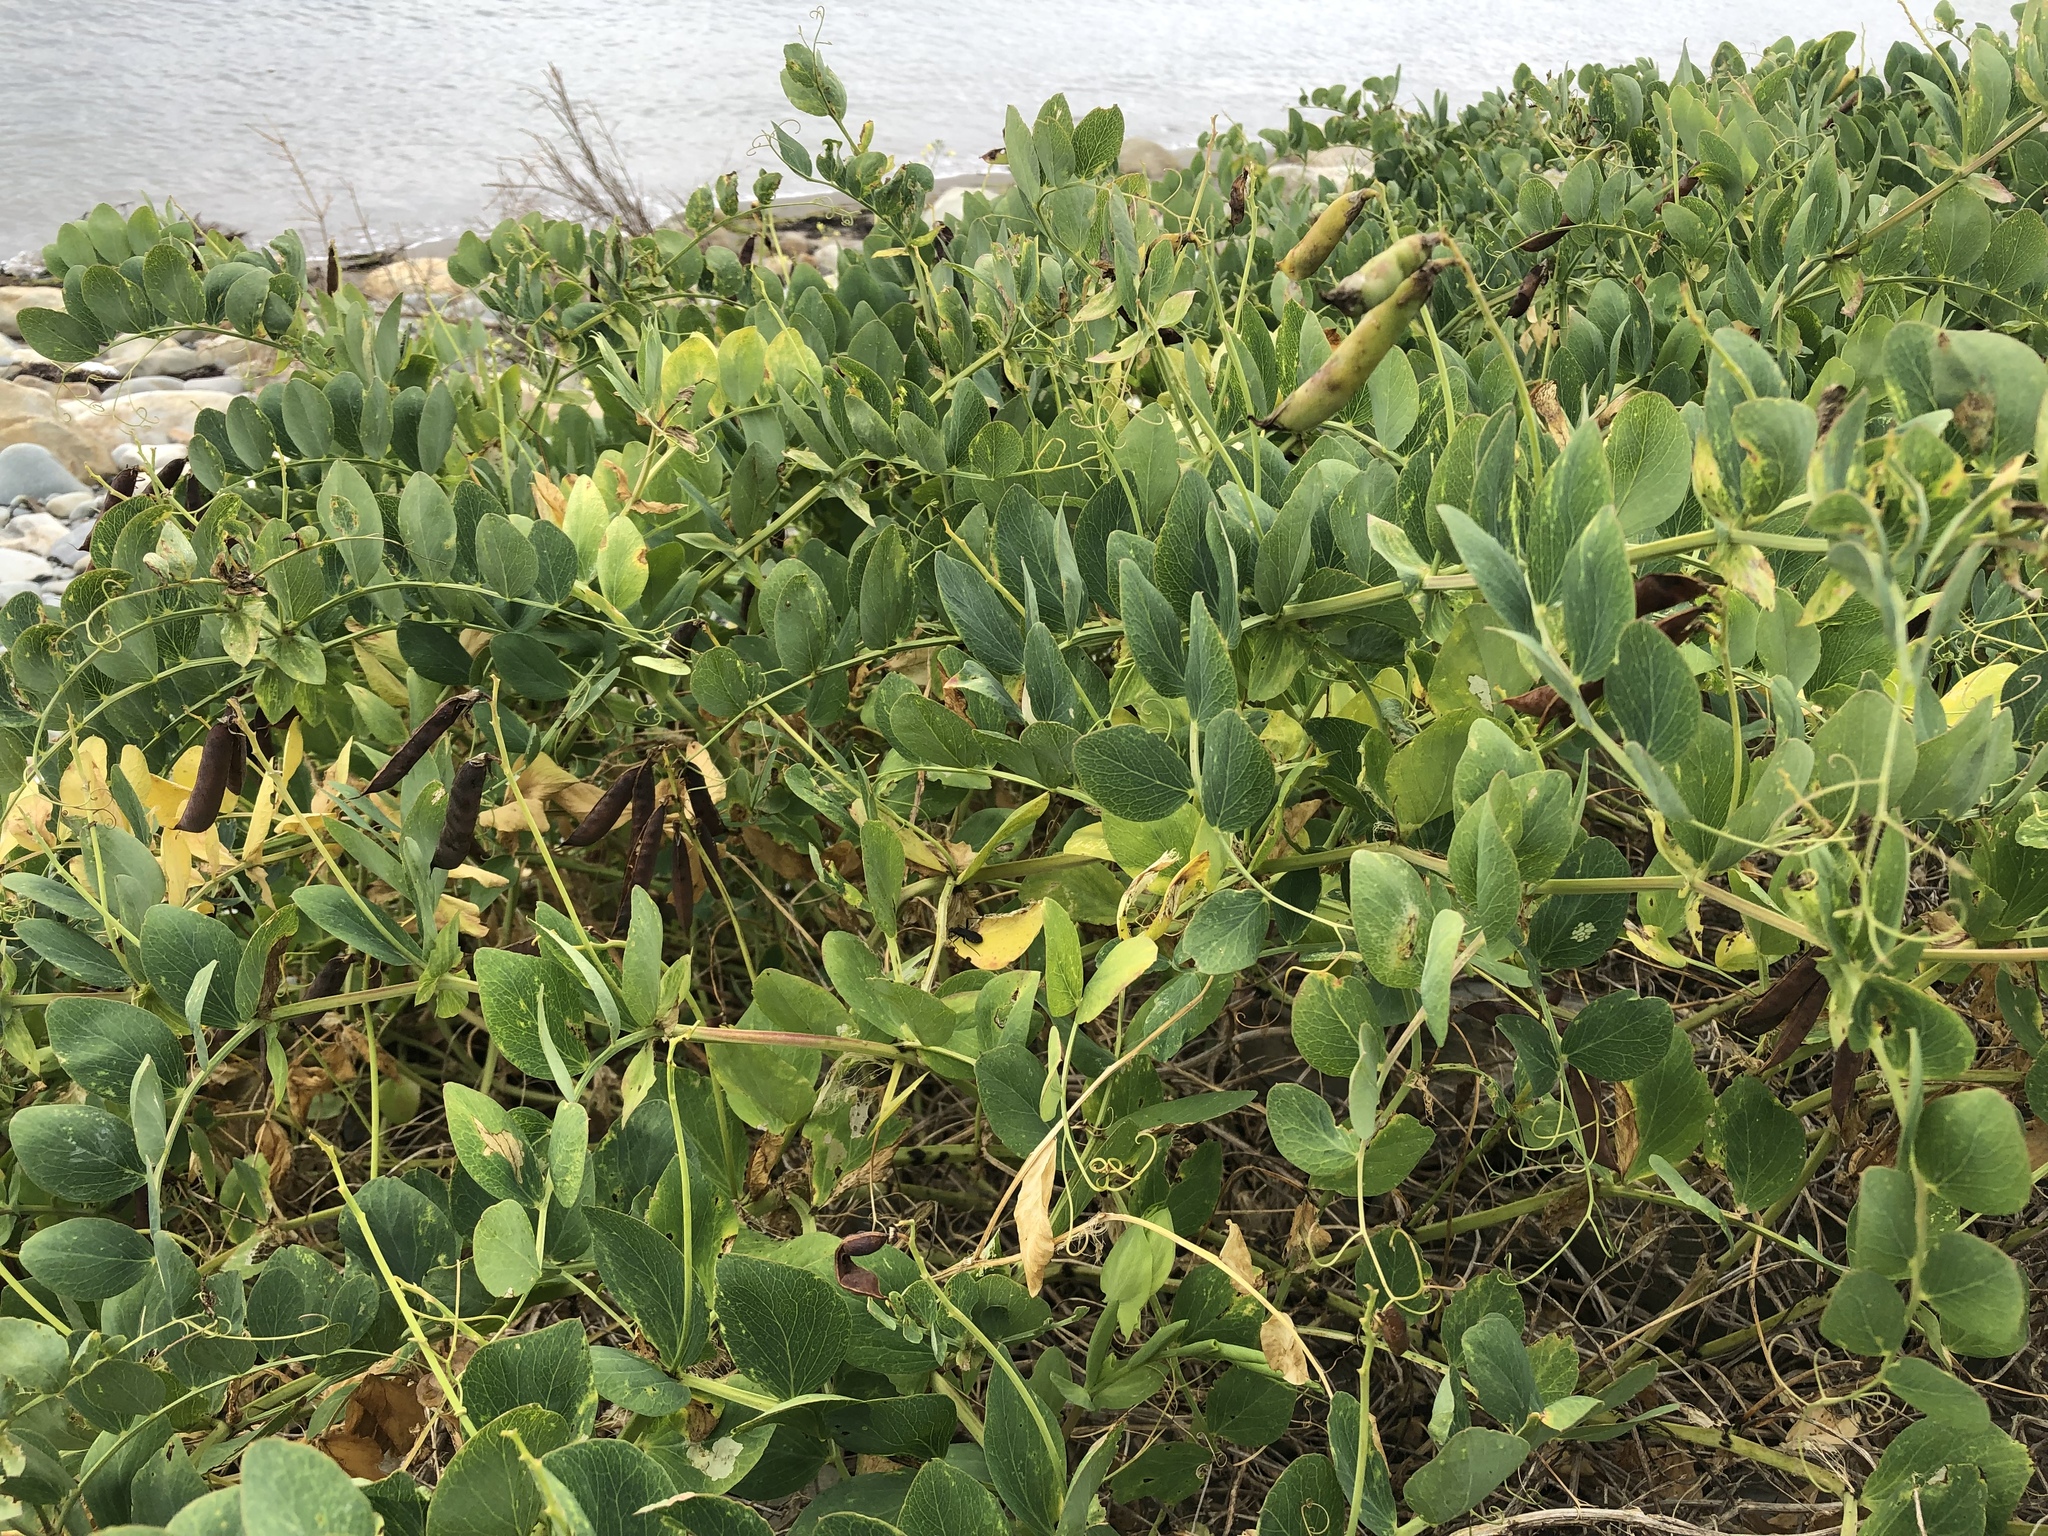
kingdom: Plantae
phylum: Tracheophyta
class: Magnoliopsida
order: Fabales
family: Fabaceae
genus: Lathyrus
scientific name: Lathyrus japonicus
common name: Sea pea
